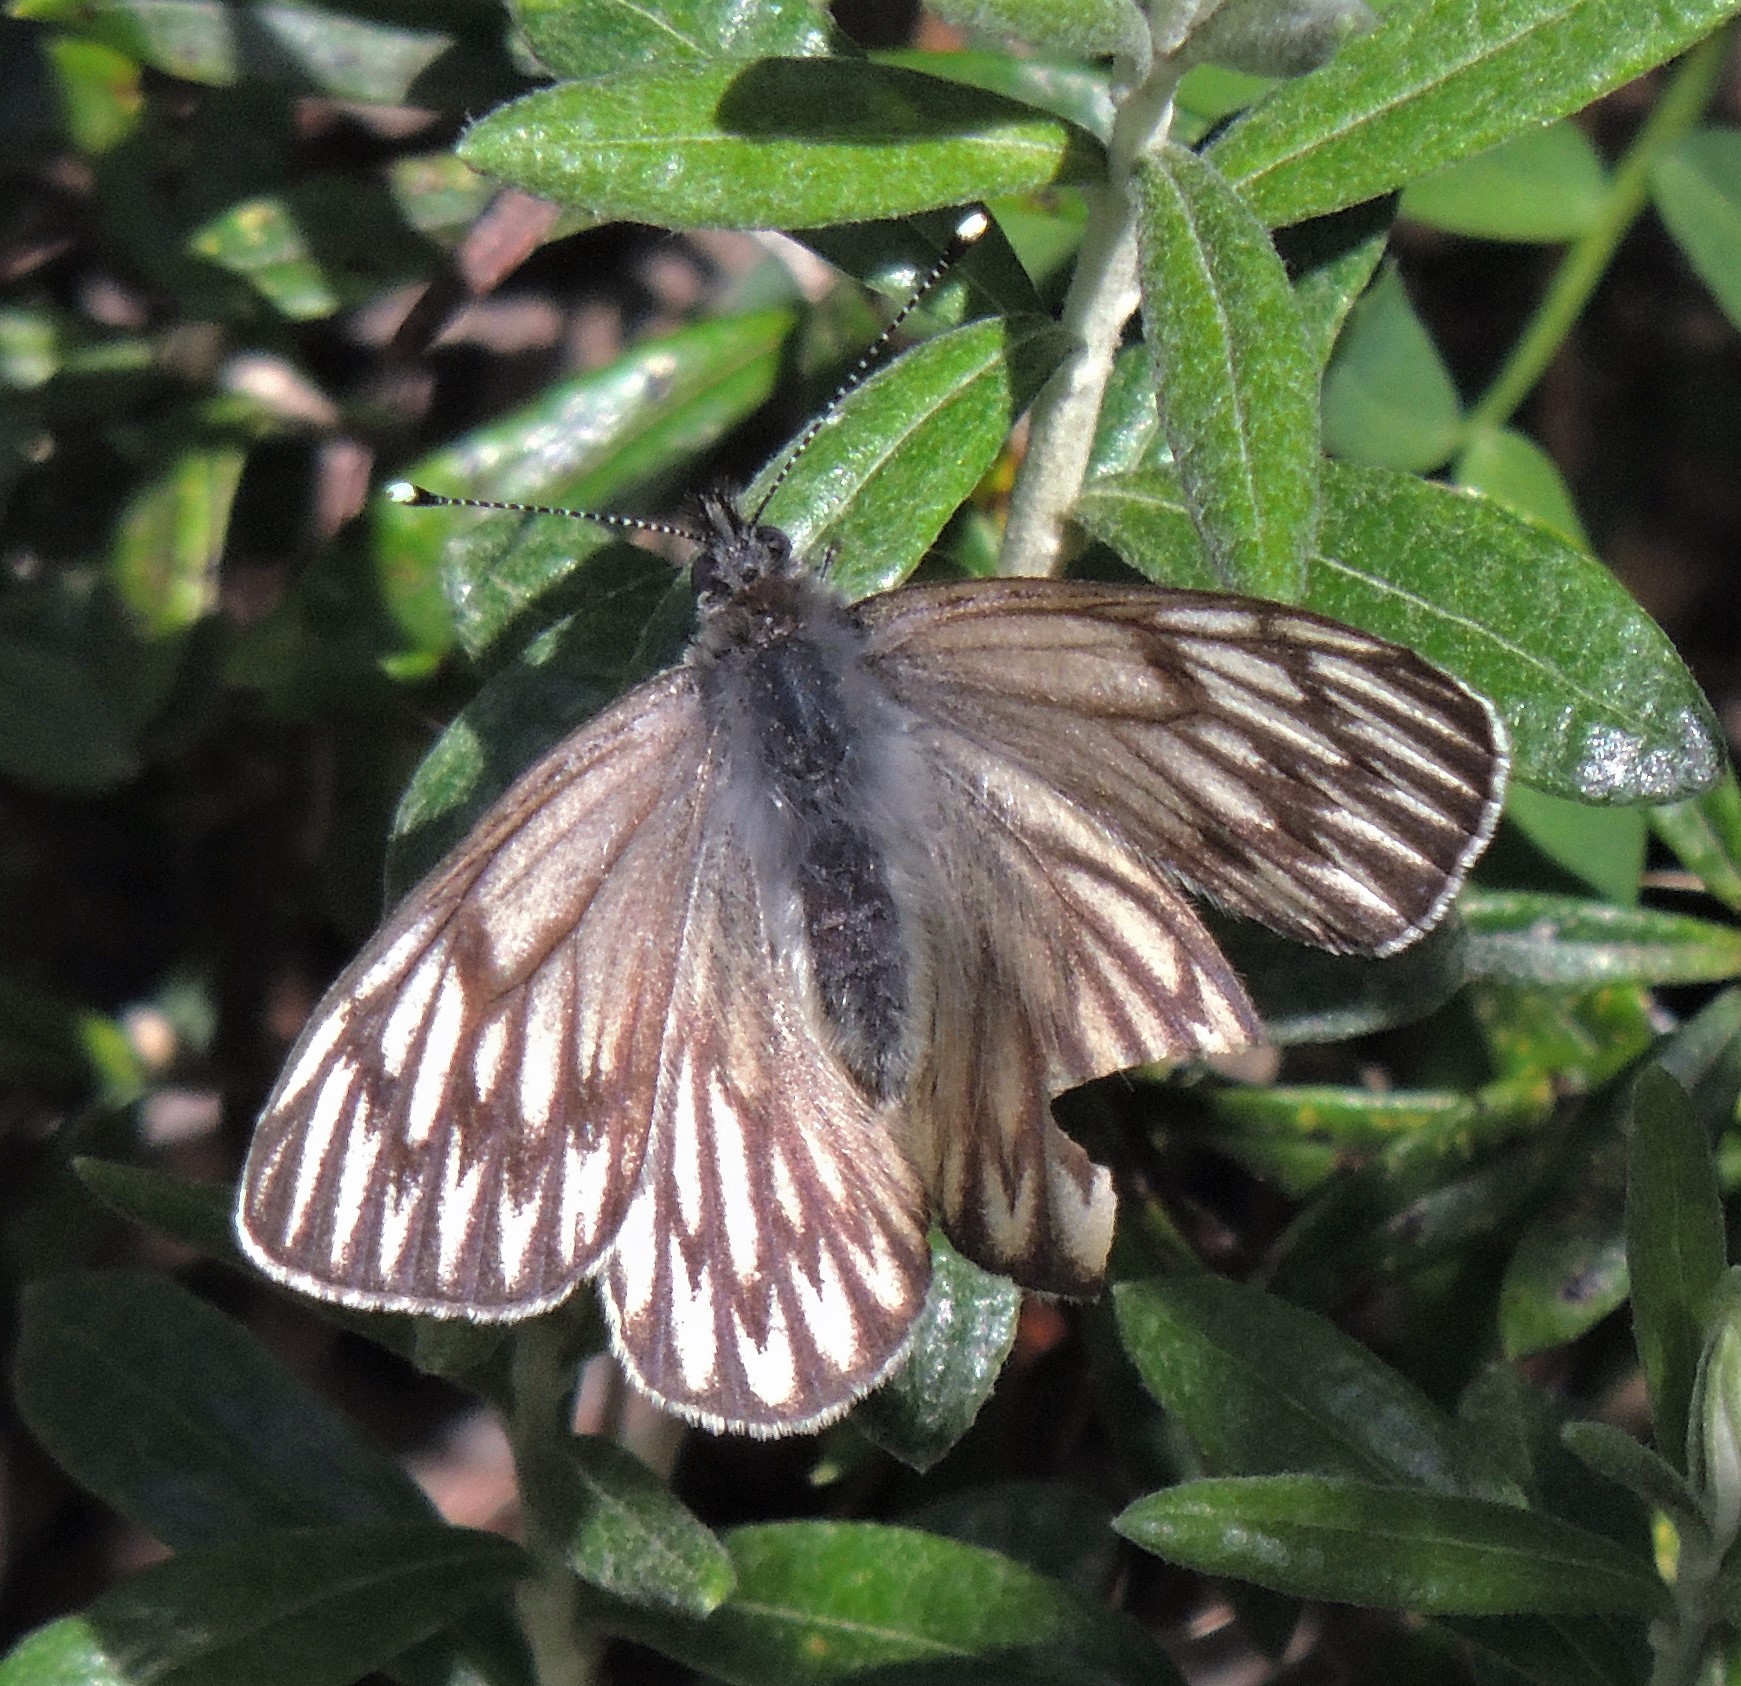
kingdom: Animalia
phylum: Arthropoda
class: Insecta
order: Lepidoptera
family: Pieridae
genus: Tatochila
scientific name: Tatochila theodice
